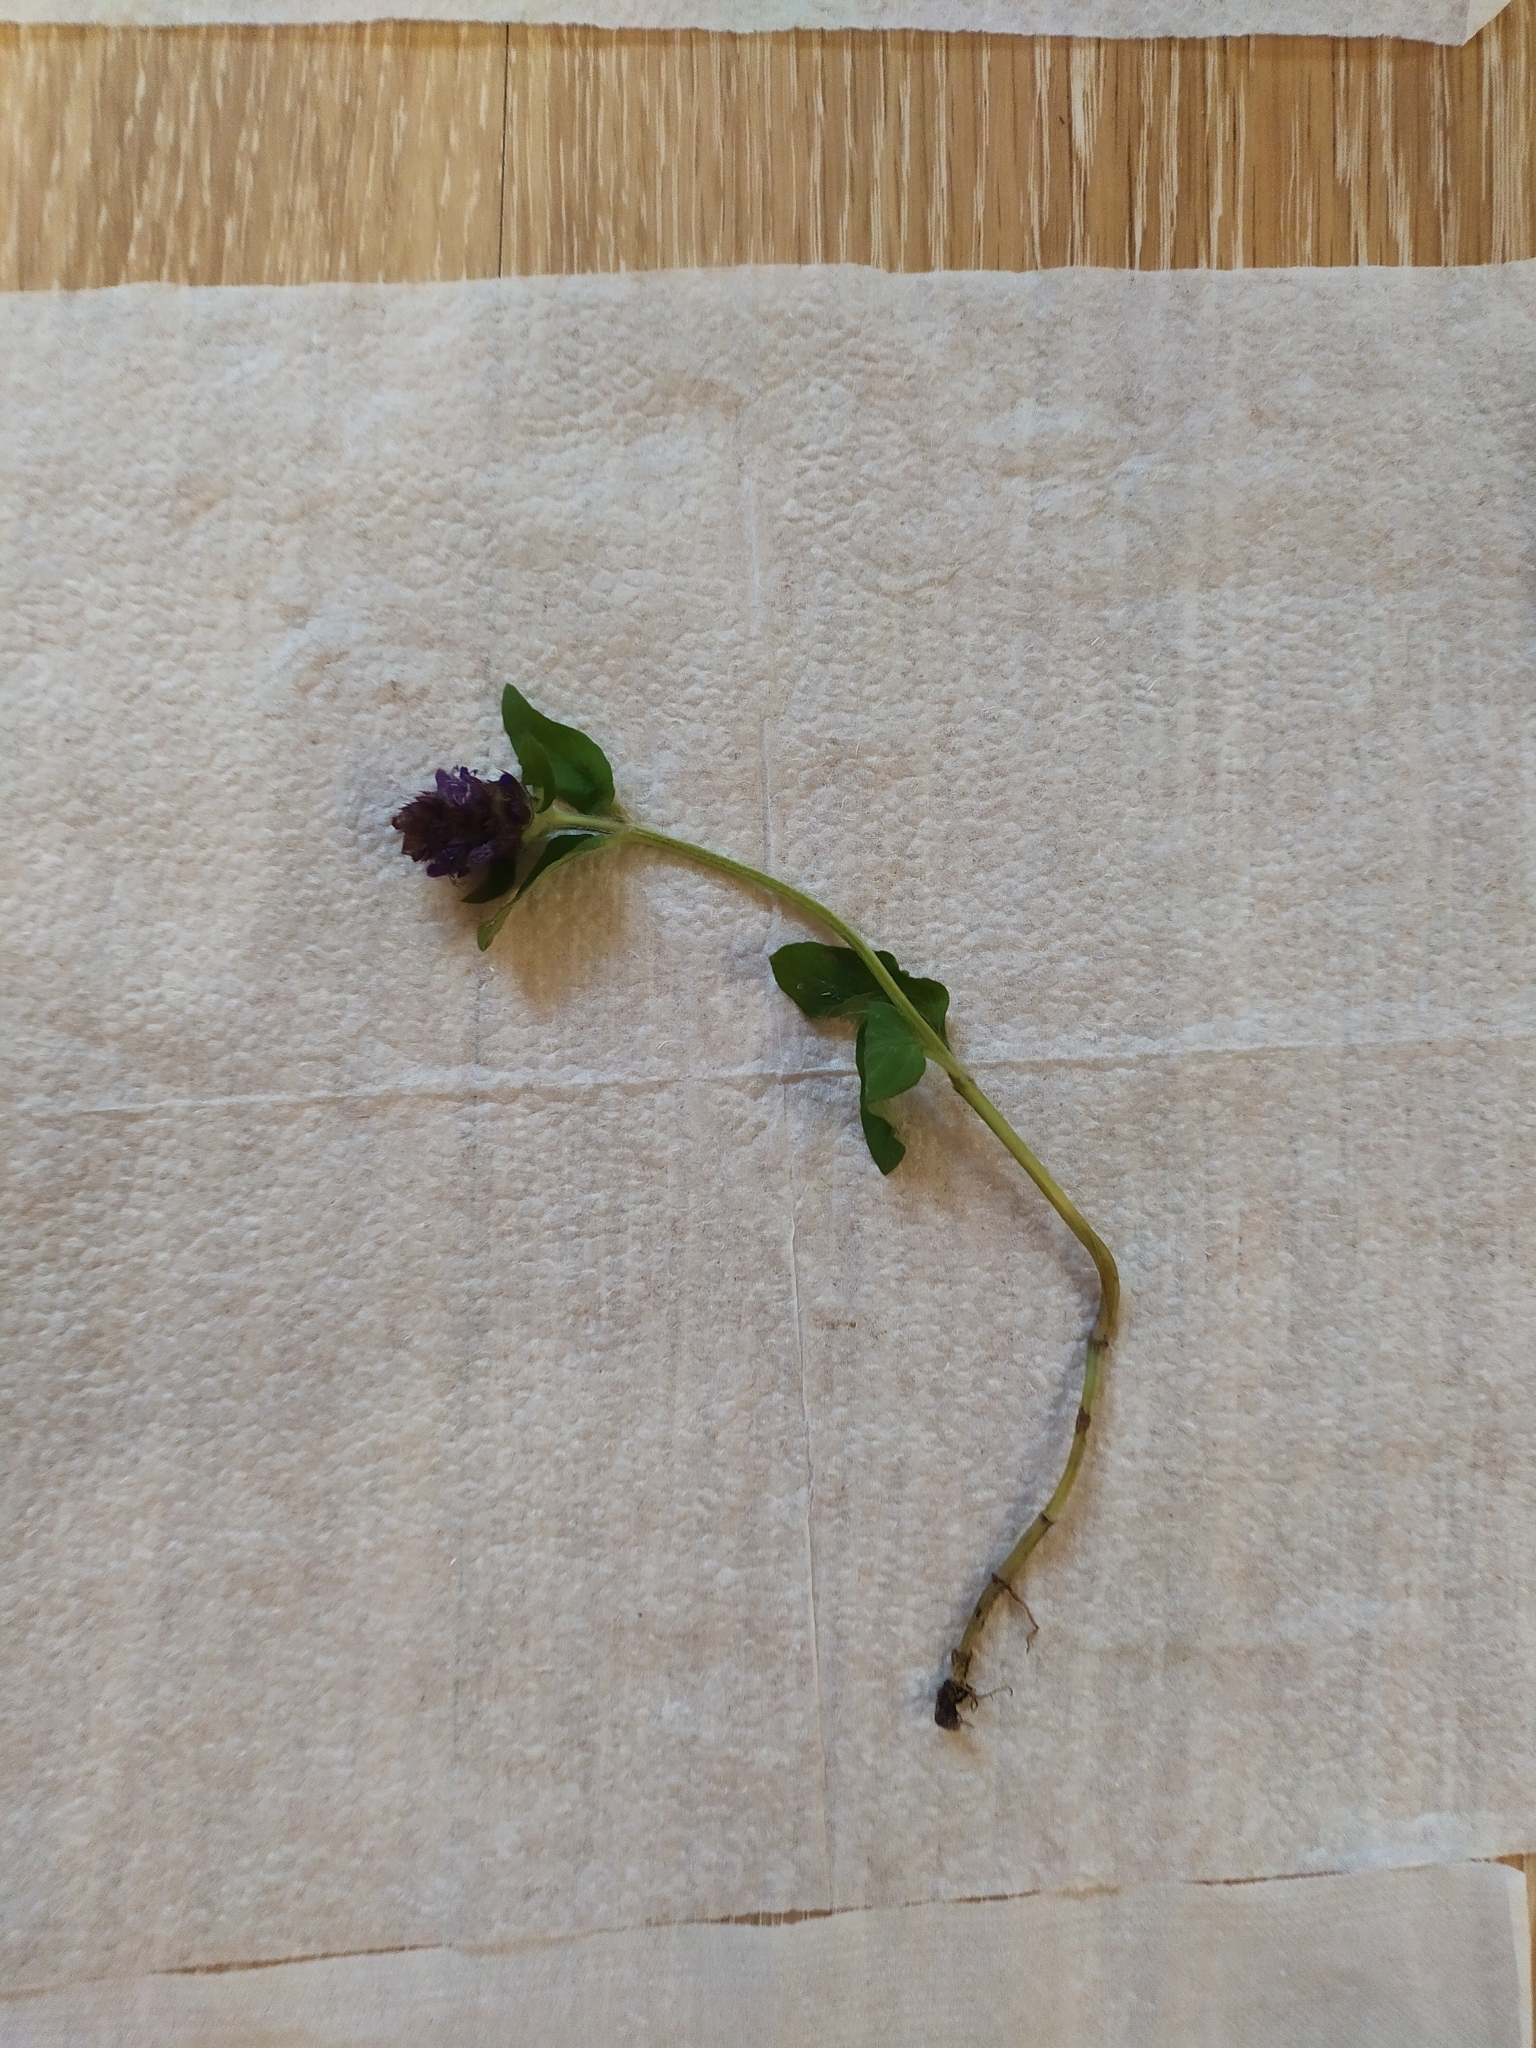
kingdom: Plantae
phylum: Tracheophyta
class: Magnoliopsida
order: Lamiales
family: Lamiaceae
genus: Prunella
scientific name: Prunella vulgaris
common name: Heal-all
